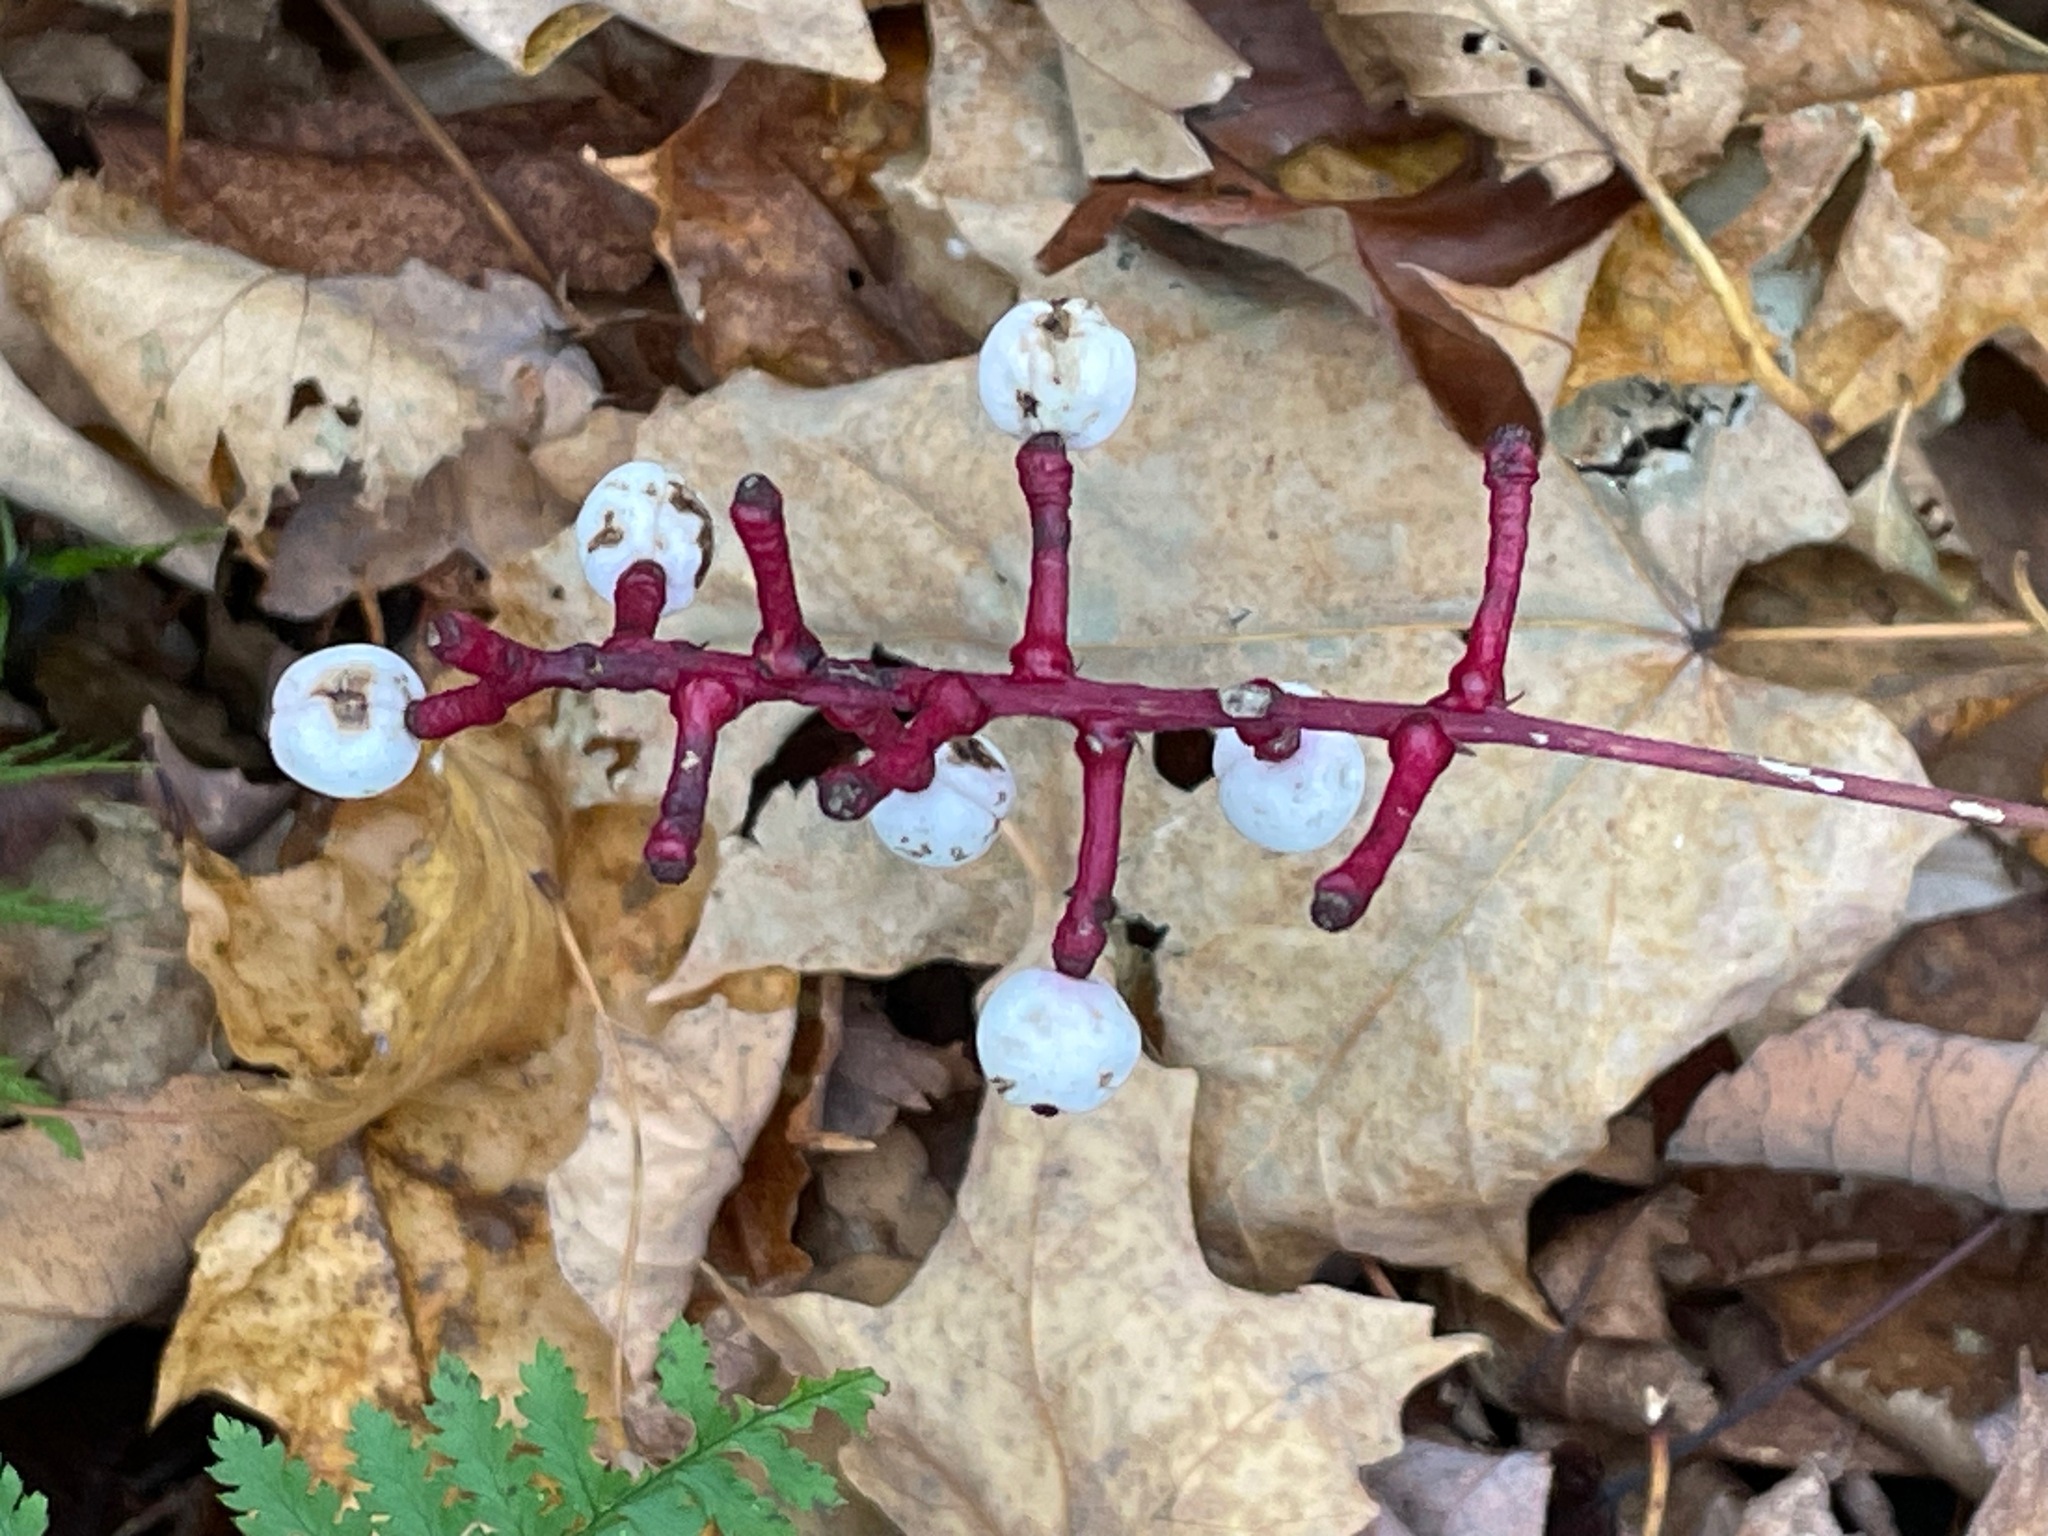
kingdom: Plantae
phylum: Tracheophyta
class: Magnoliopsida
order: Ranunculales
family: Ranunculaceae
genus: Actaea
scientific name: Actaea pachypoda
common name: Doll's-eyes
